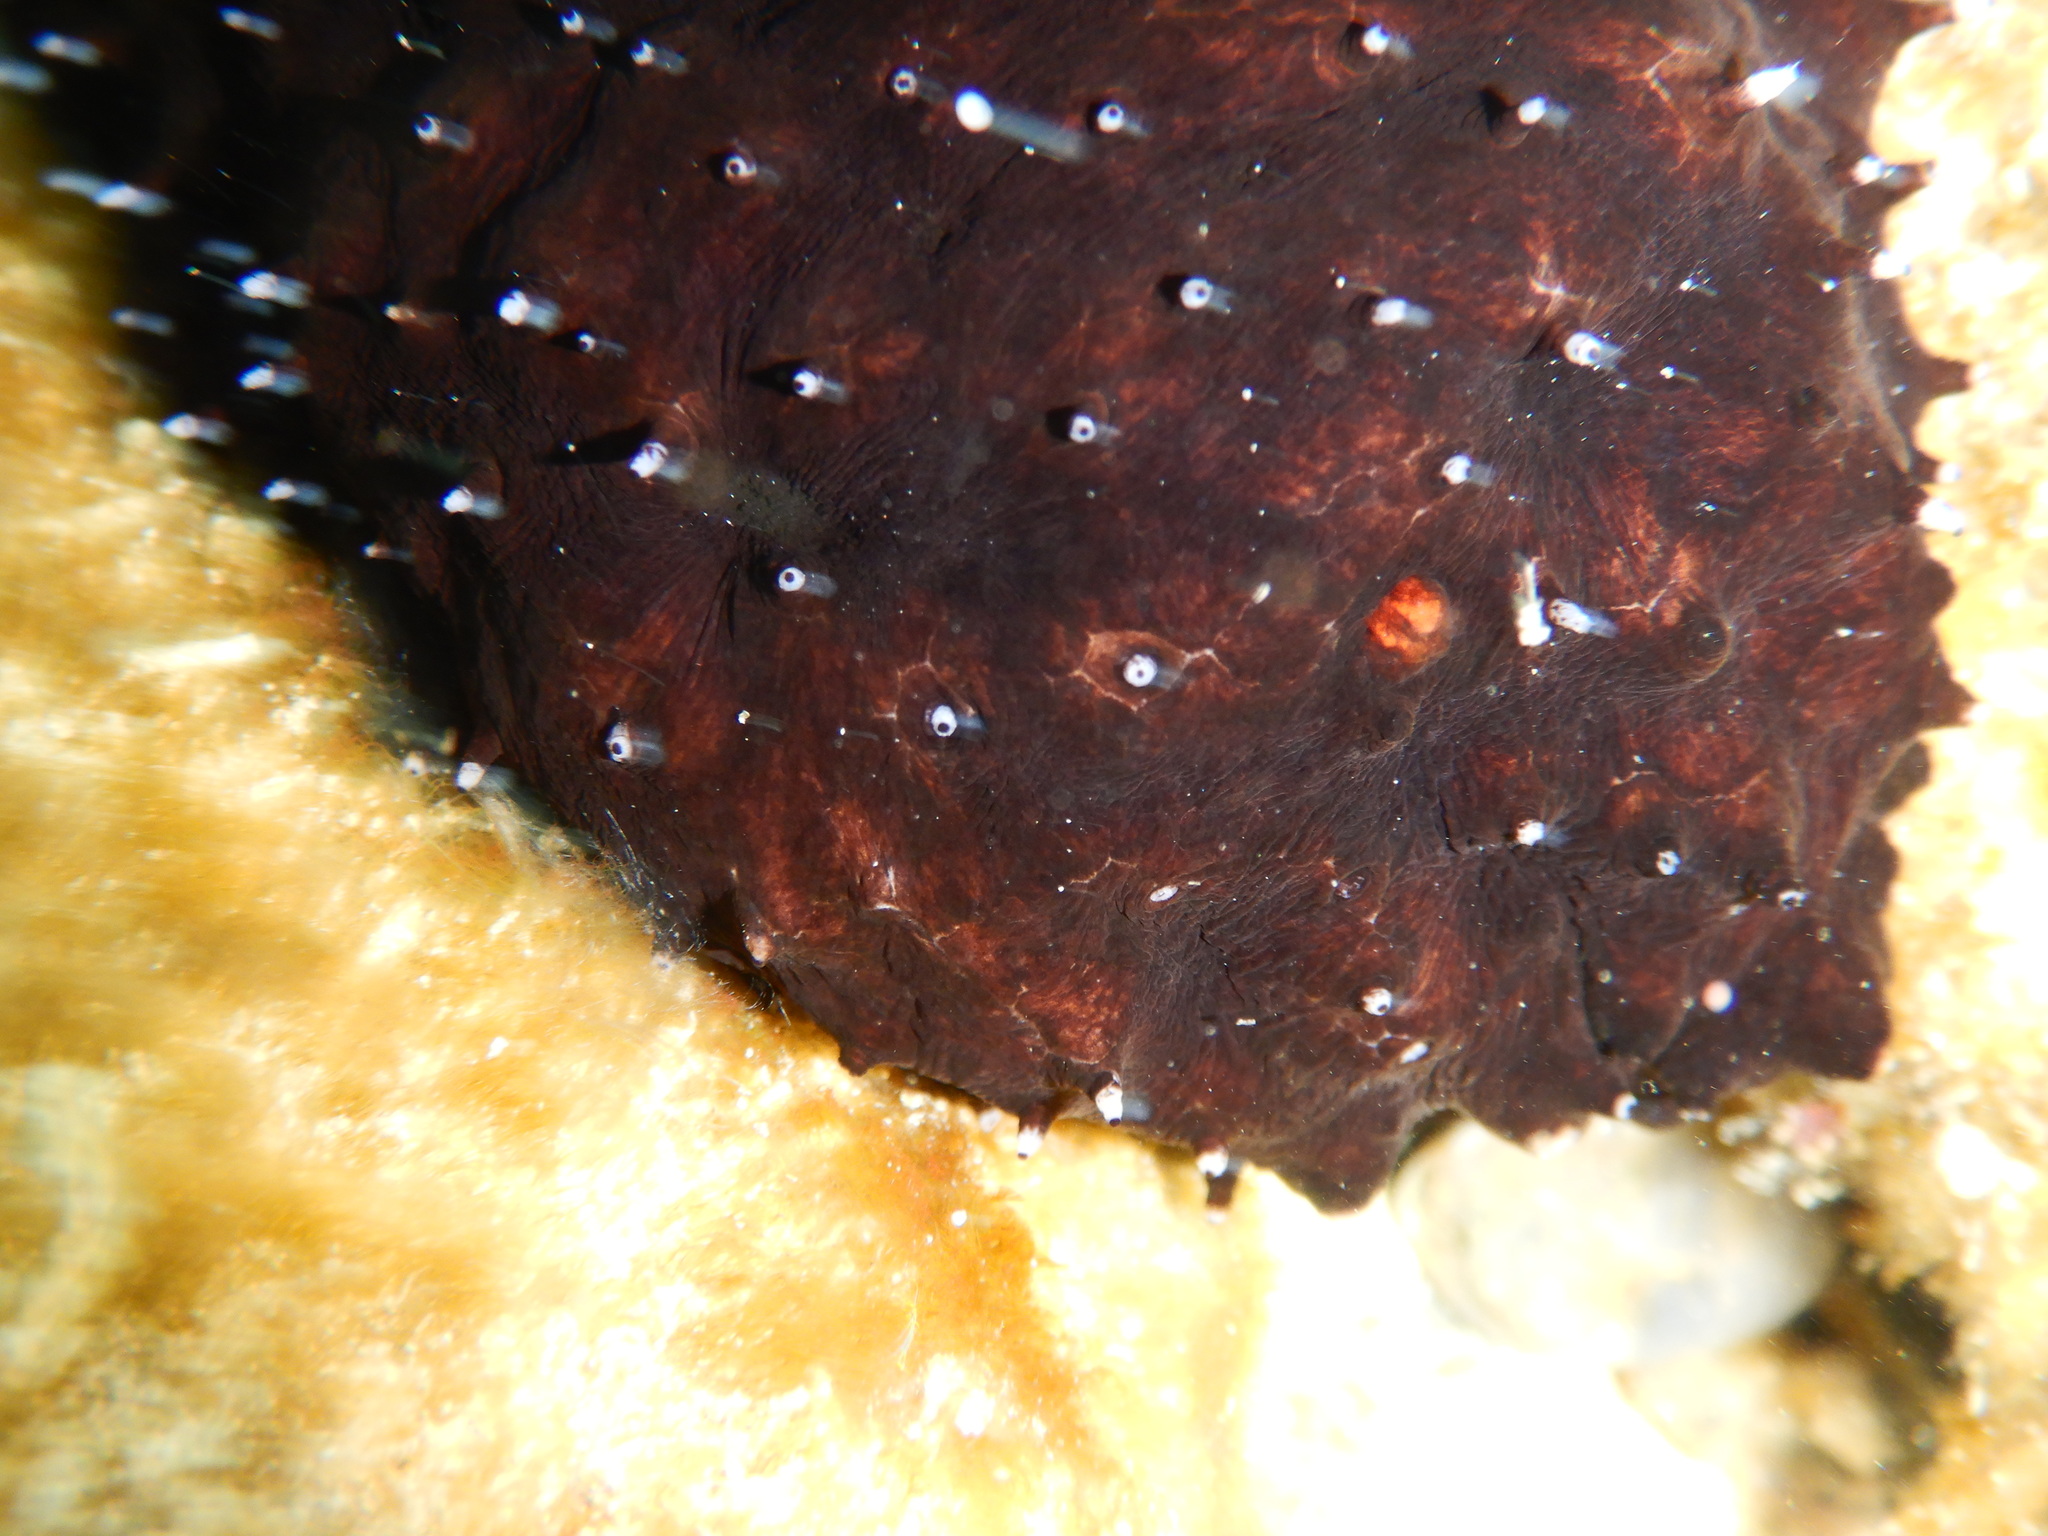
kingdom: Animalia
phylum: Echinodermata
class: Holothuroidea
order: Holothuriida
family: Holothuriidae
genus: Holothuria
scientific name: Holothuria forskali
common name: Black sea cucumber
